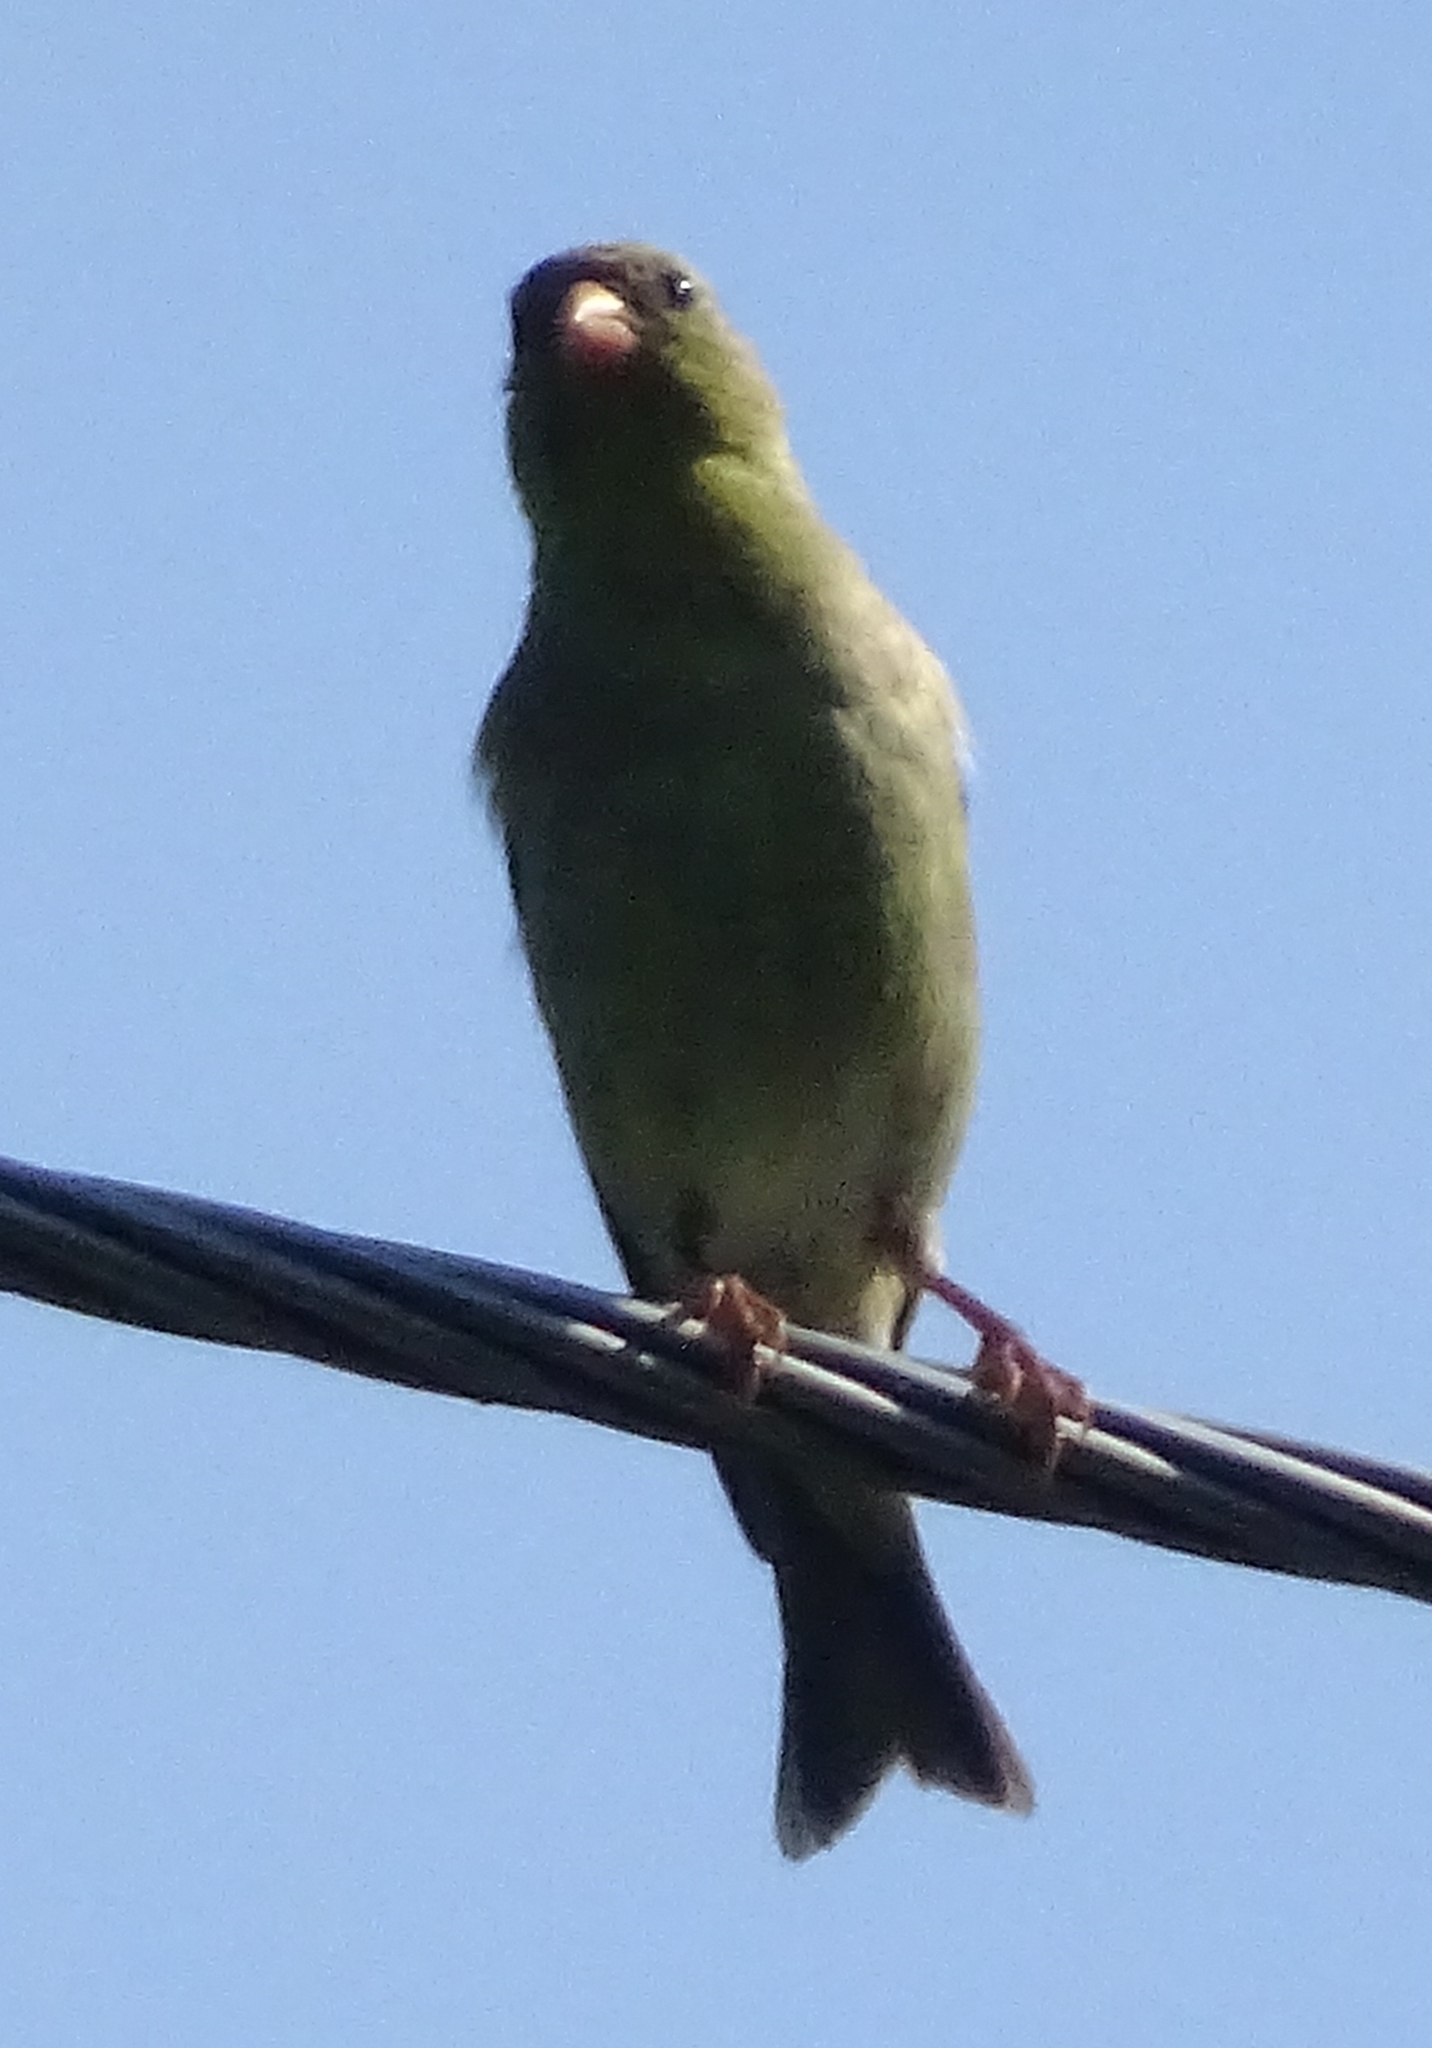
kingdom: Animalia
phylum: Chordata
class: Aves
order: Passeriformes
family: Cardinalidae
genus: Piranga
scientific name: Piranga olivacea
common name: Scarlet tanager
